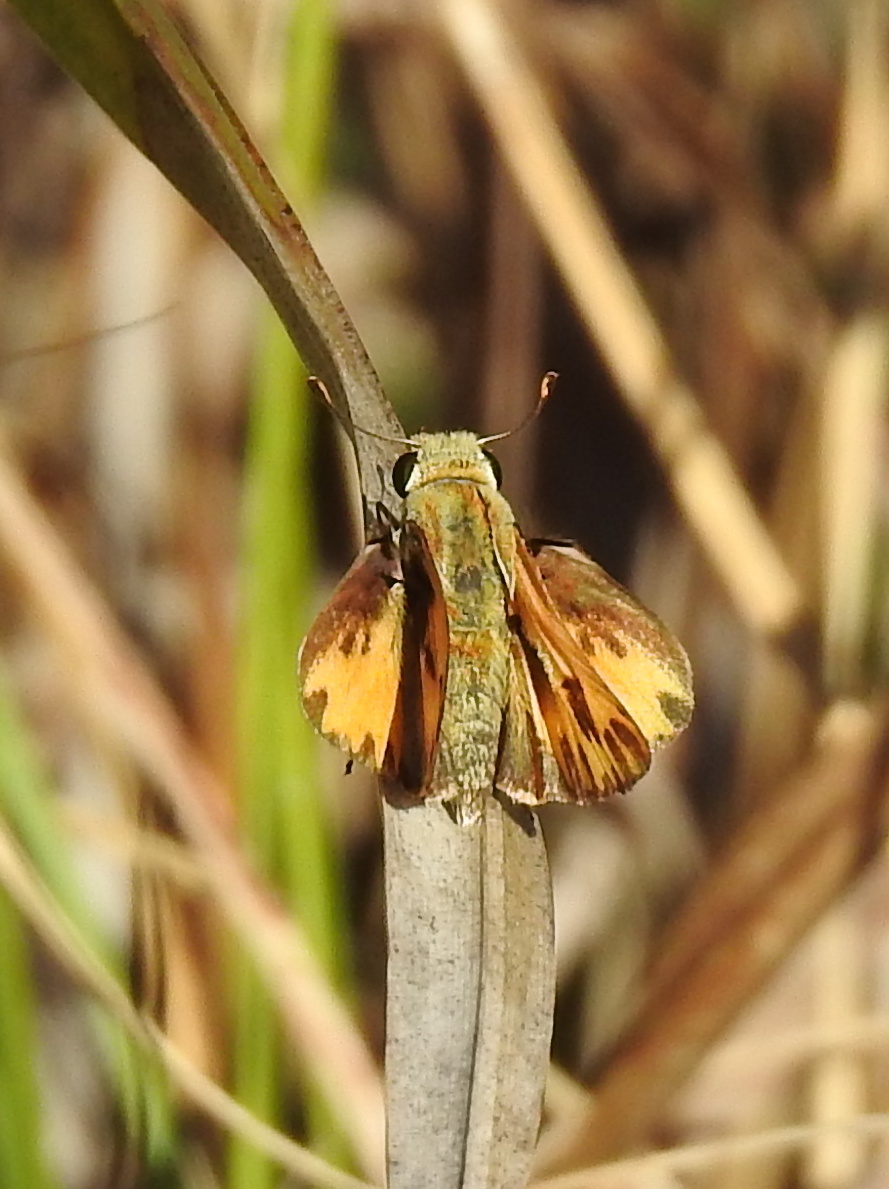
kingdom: Animalia
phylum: Arthropoda
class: Insecta
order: Lepidoptera
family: Hesperiidae
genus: Hylephila
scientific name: Hylephila phyleus
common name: Fiery skipper
